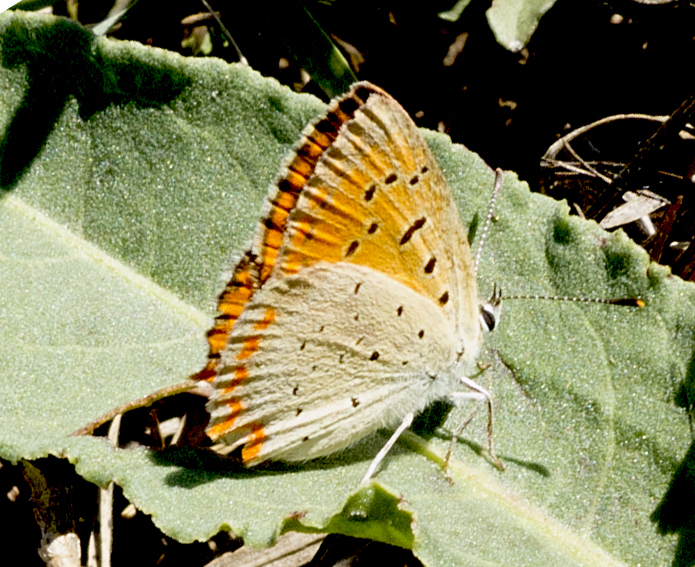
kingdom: Animalia
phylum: Arthropoda
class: Insecta
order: Lepidoptera
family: Lycaenidae
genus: Polyommatus
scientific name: Polyommatus ottomanus
